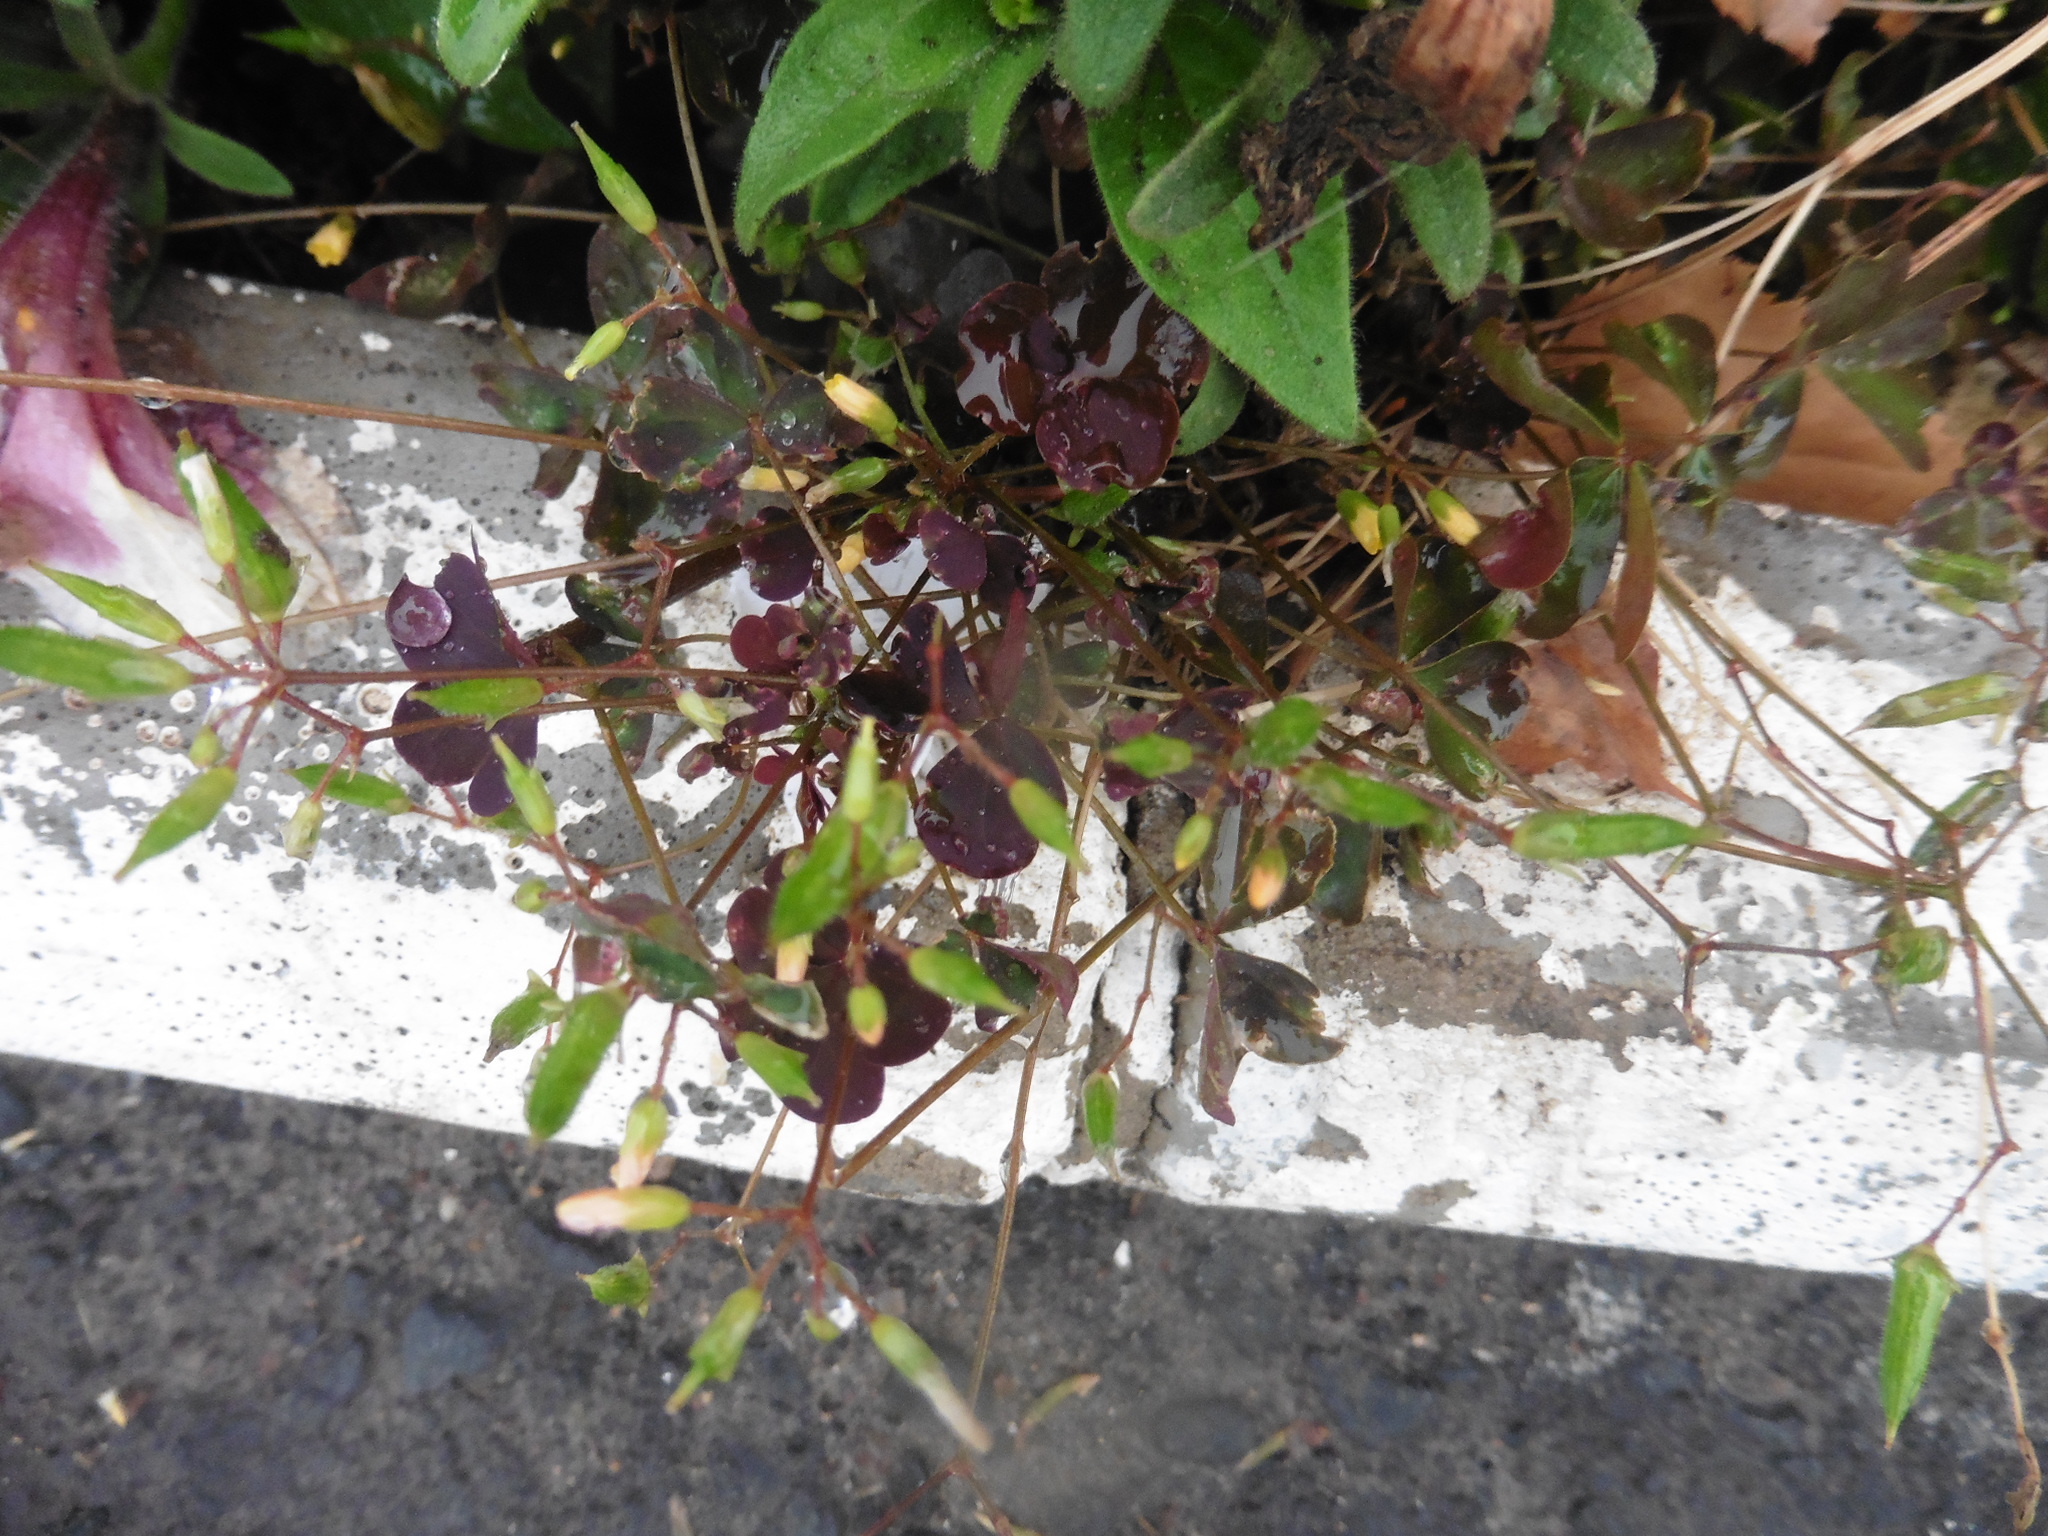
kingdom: Plantae
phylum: Tracheophyta
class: Magnoliopsida
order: Oxalidales
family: Oxalidaceae
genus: Oxalis
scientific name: Oxalis stricta
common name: Upright yellow-sorrel
